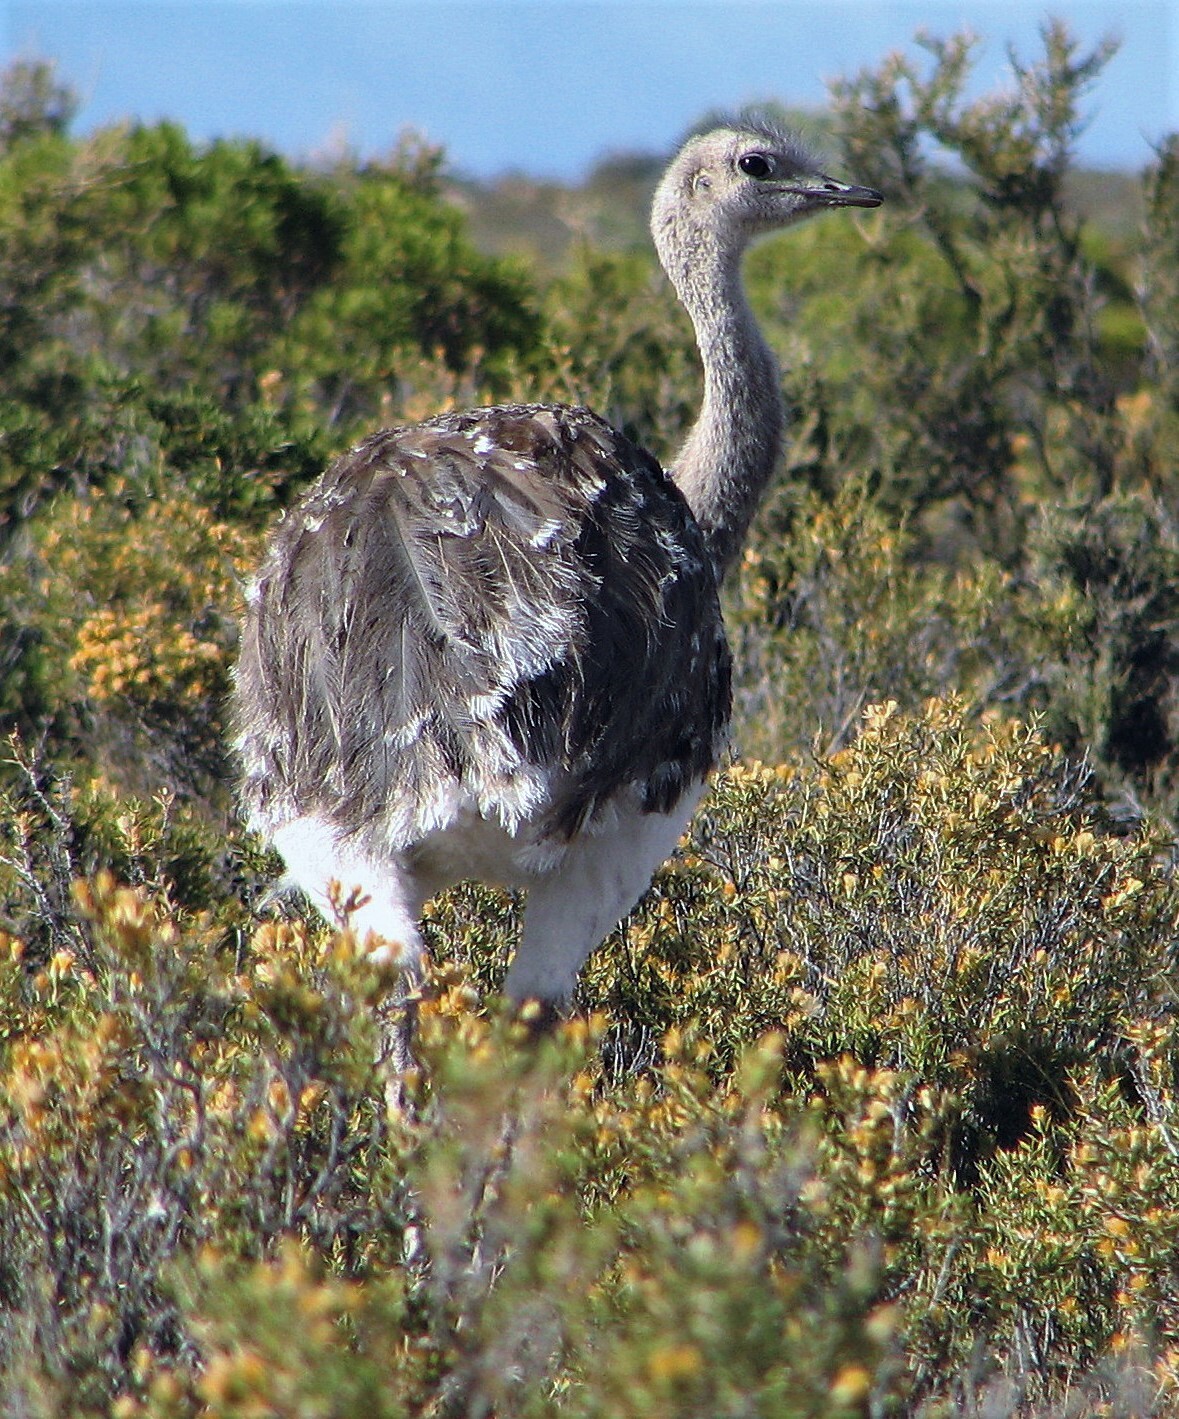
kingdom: Animalia
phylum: Chordata
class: Aves
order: Rheiformes
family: Rheidae
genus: Rhea
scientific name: Rhea pennata
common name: Lesser rhea
